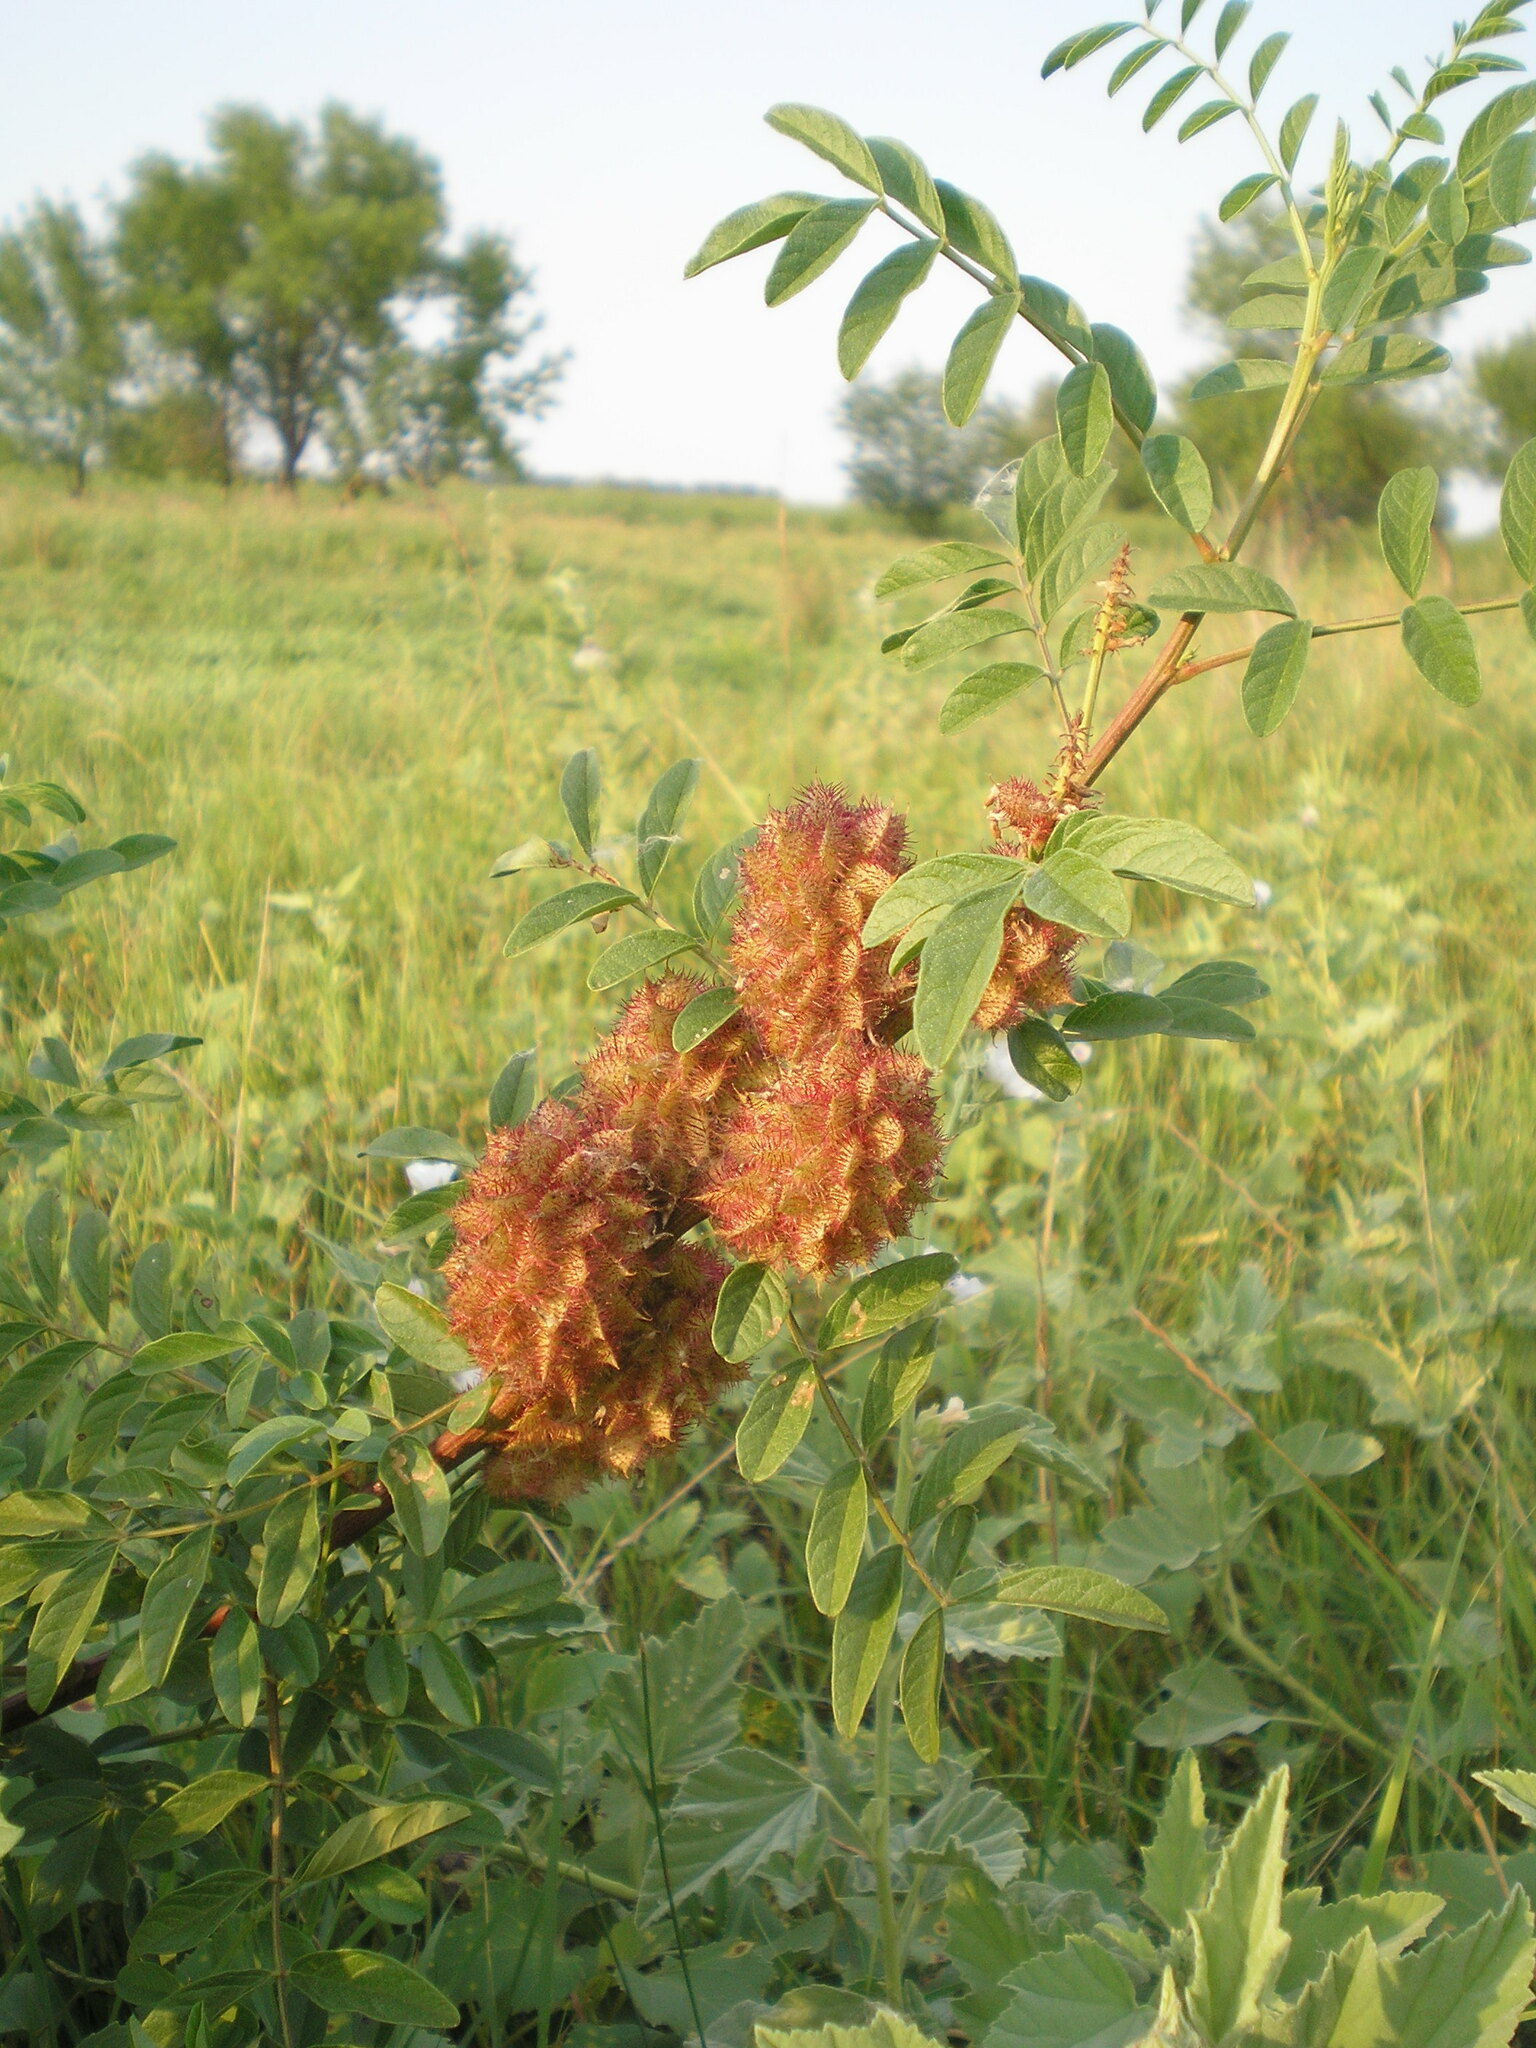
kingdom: Plantae
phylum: Tracheophyta
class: Magnoliopsida
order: Fabales
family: Fabaceae
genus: Glycyrrhiza
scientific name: Glycyrrhiza echinata
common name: German liquorice
